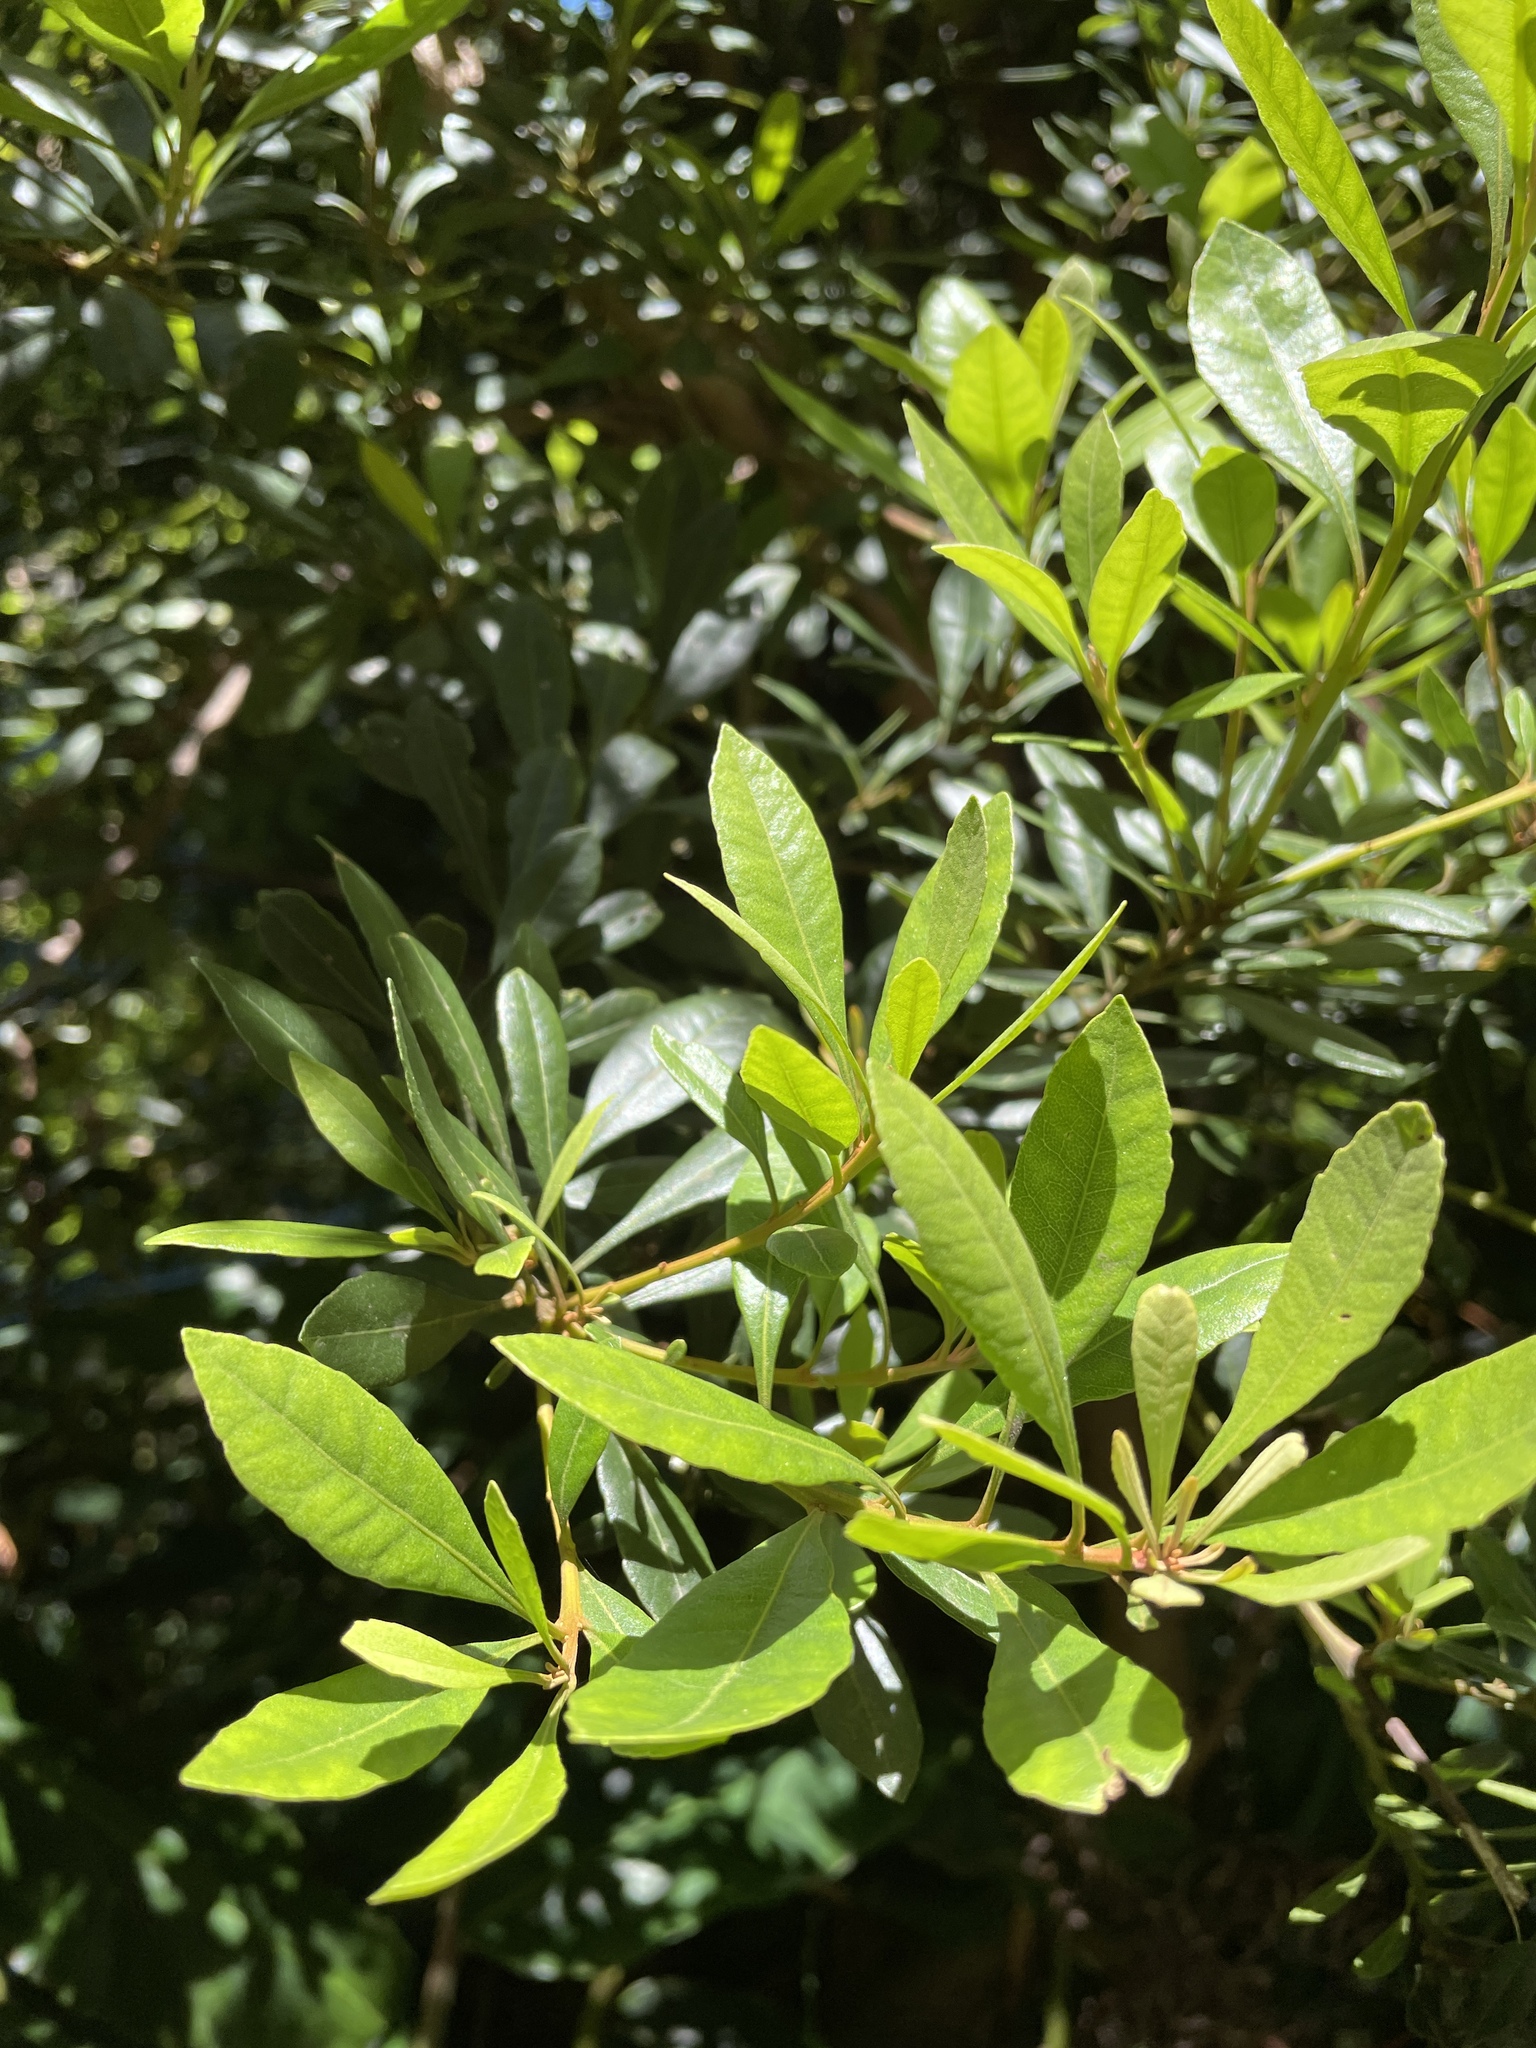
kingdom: Plantae
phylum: Tracheophyta
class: Magnoliopsida
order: Fagales
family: Myricaceae
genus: Morella
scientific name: Morella faya
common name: Firetree
